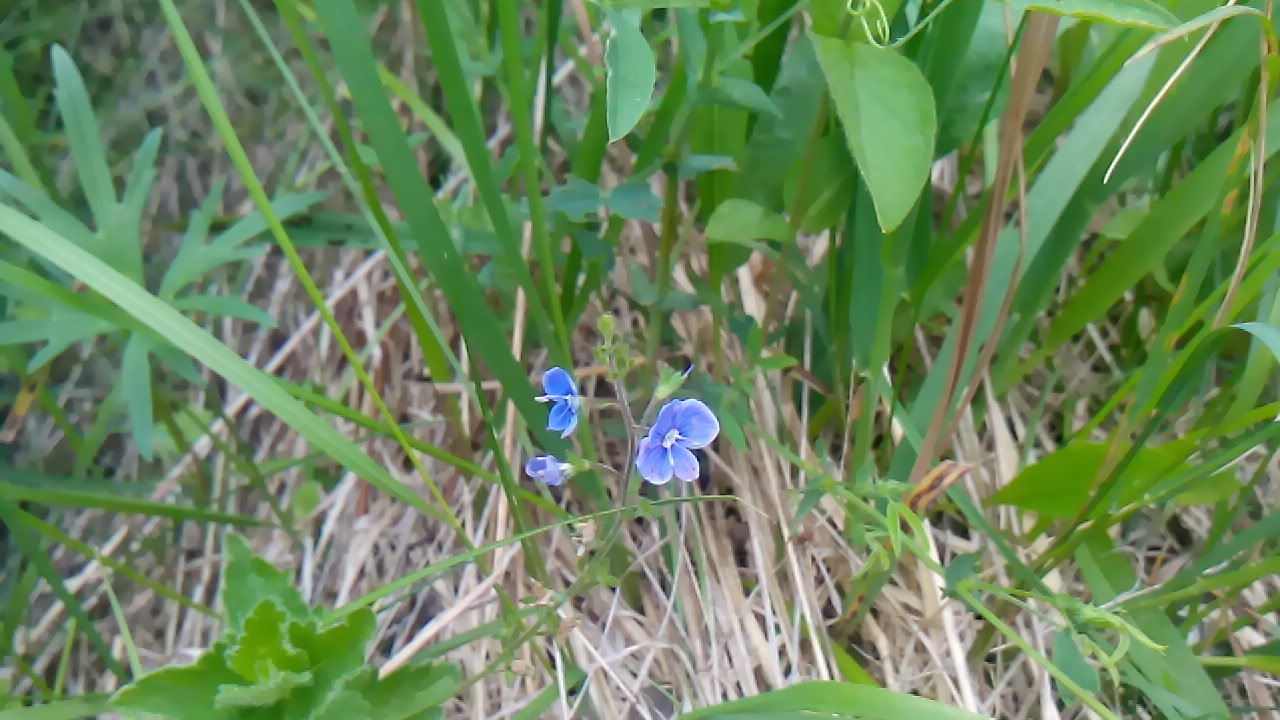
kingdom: Plantae
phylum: Tracheophyta
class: Magnoliopsida
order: Lamiales
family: Plantaginaceae
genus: Veronica
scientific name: Veronica chamaedrys
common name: Germander speedwell
